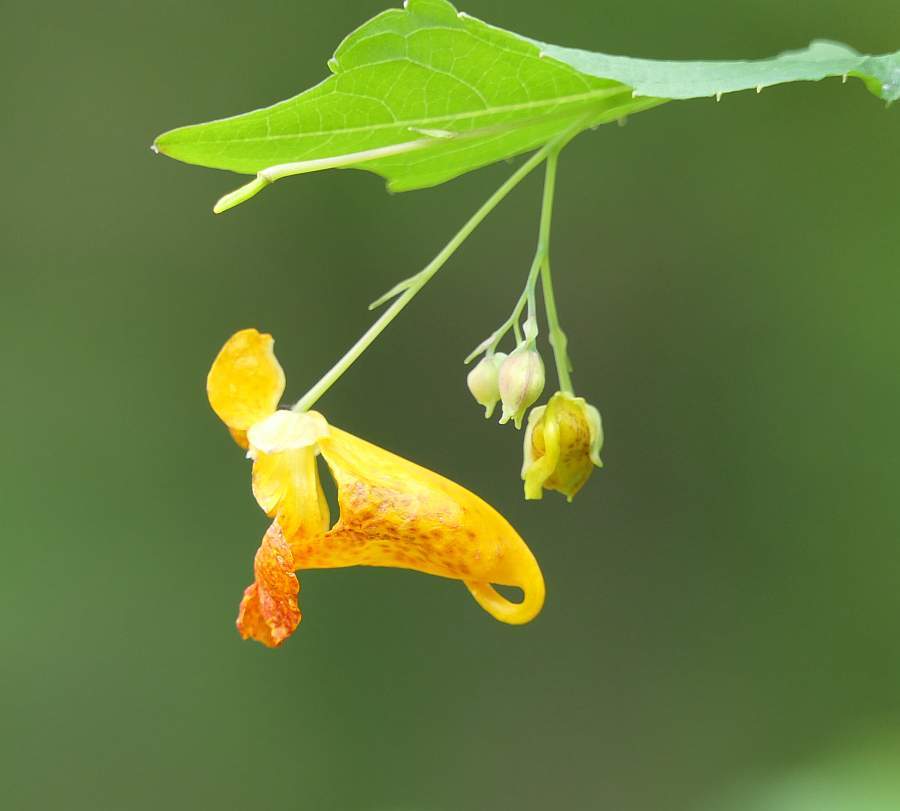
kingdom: Plantae
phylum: Tracheophyta
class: Magnoliopsida
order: Ericales
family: Balsaminaceae
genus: Impatiens
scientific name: Impatiens capensis
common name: Orange balsam
